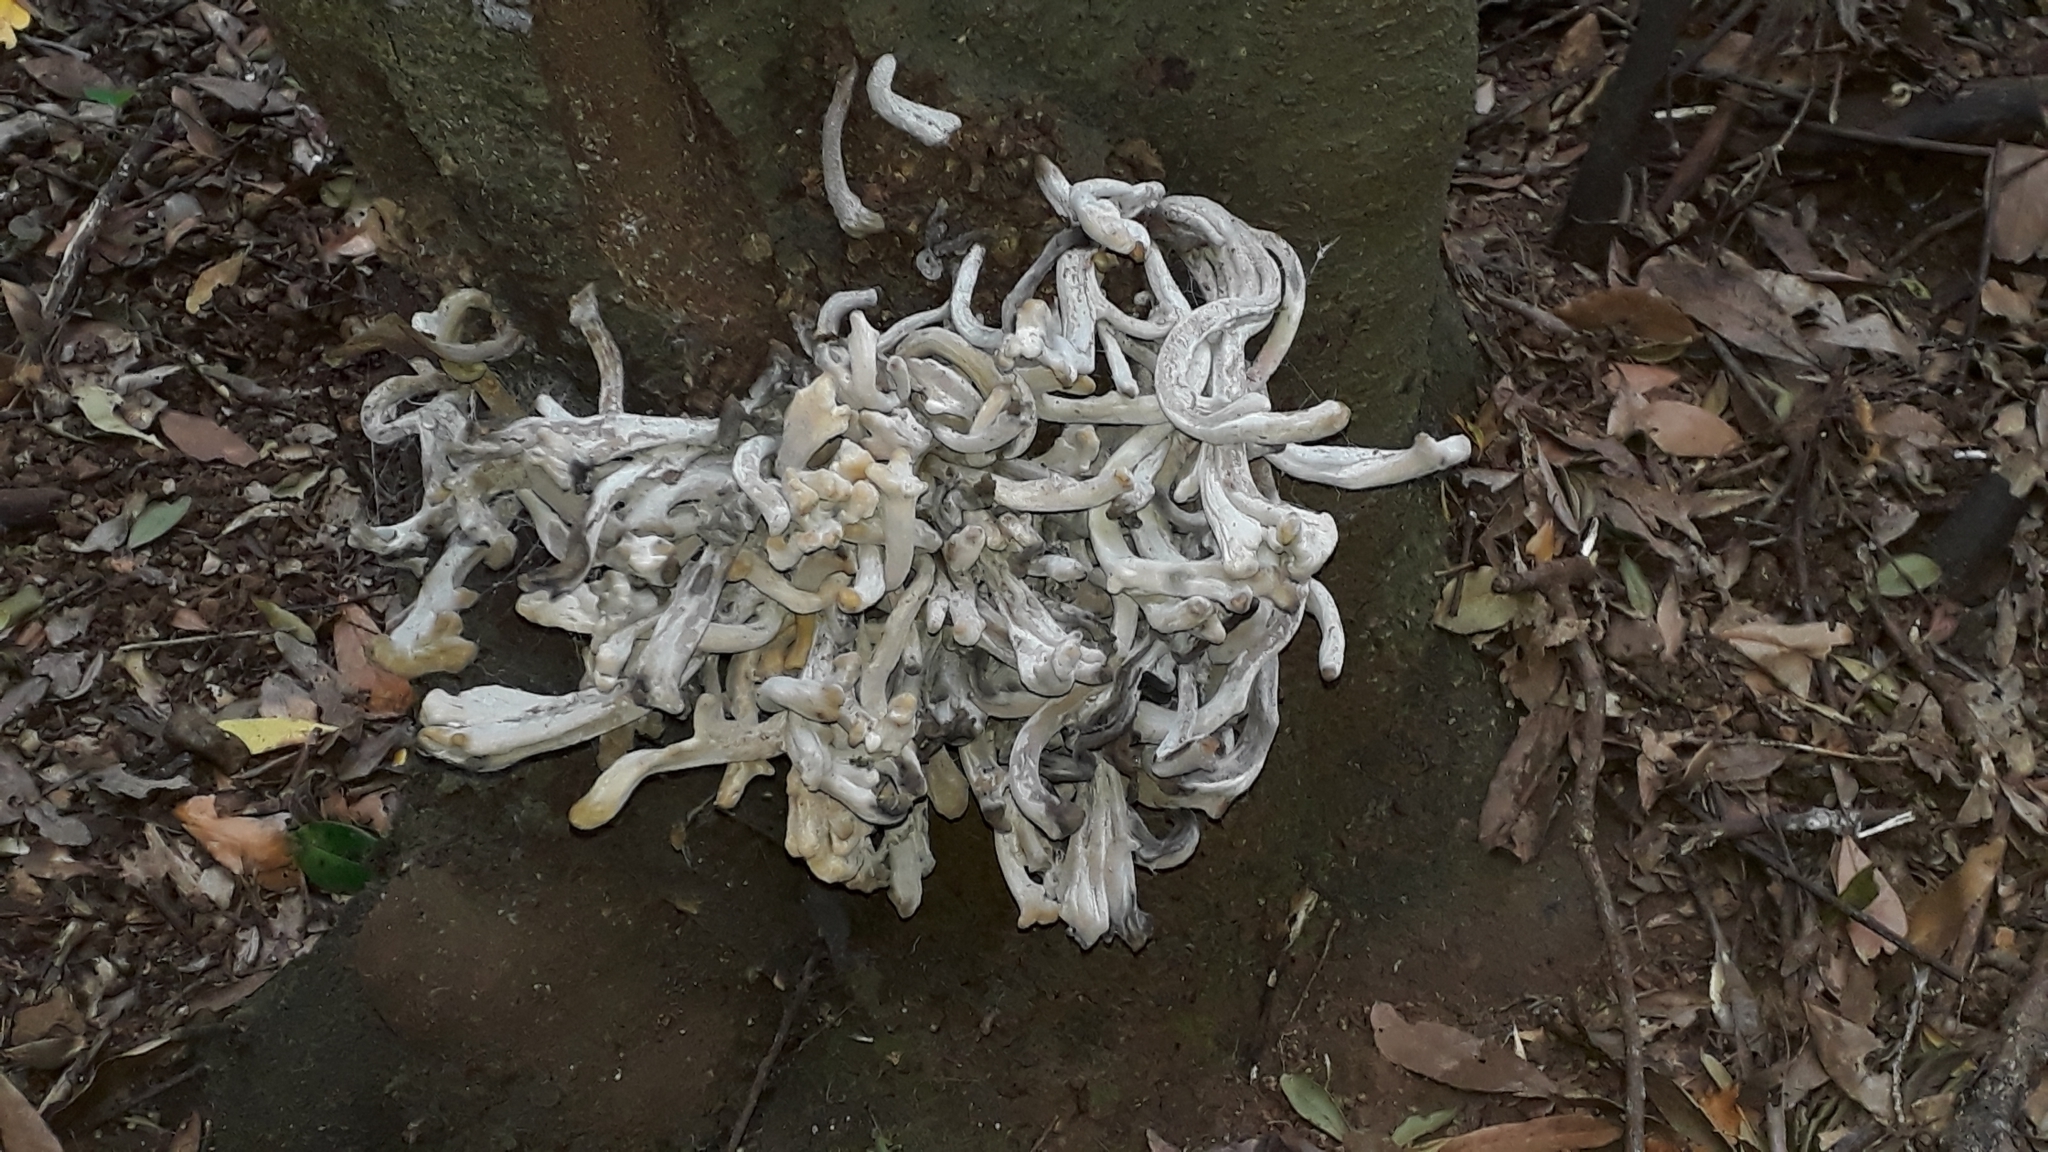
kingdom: Fungi
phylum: Basidiomycota
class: Exobasidiomycetes
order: Exobasidiales
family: Laurobasidiaceae
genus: Laurobasidium
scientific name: Laurobasidium lauri
